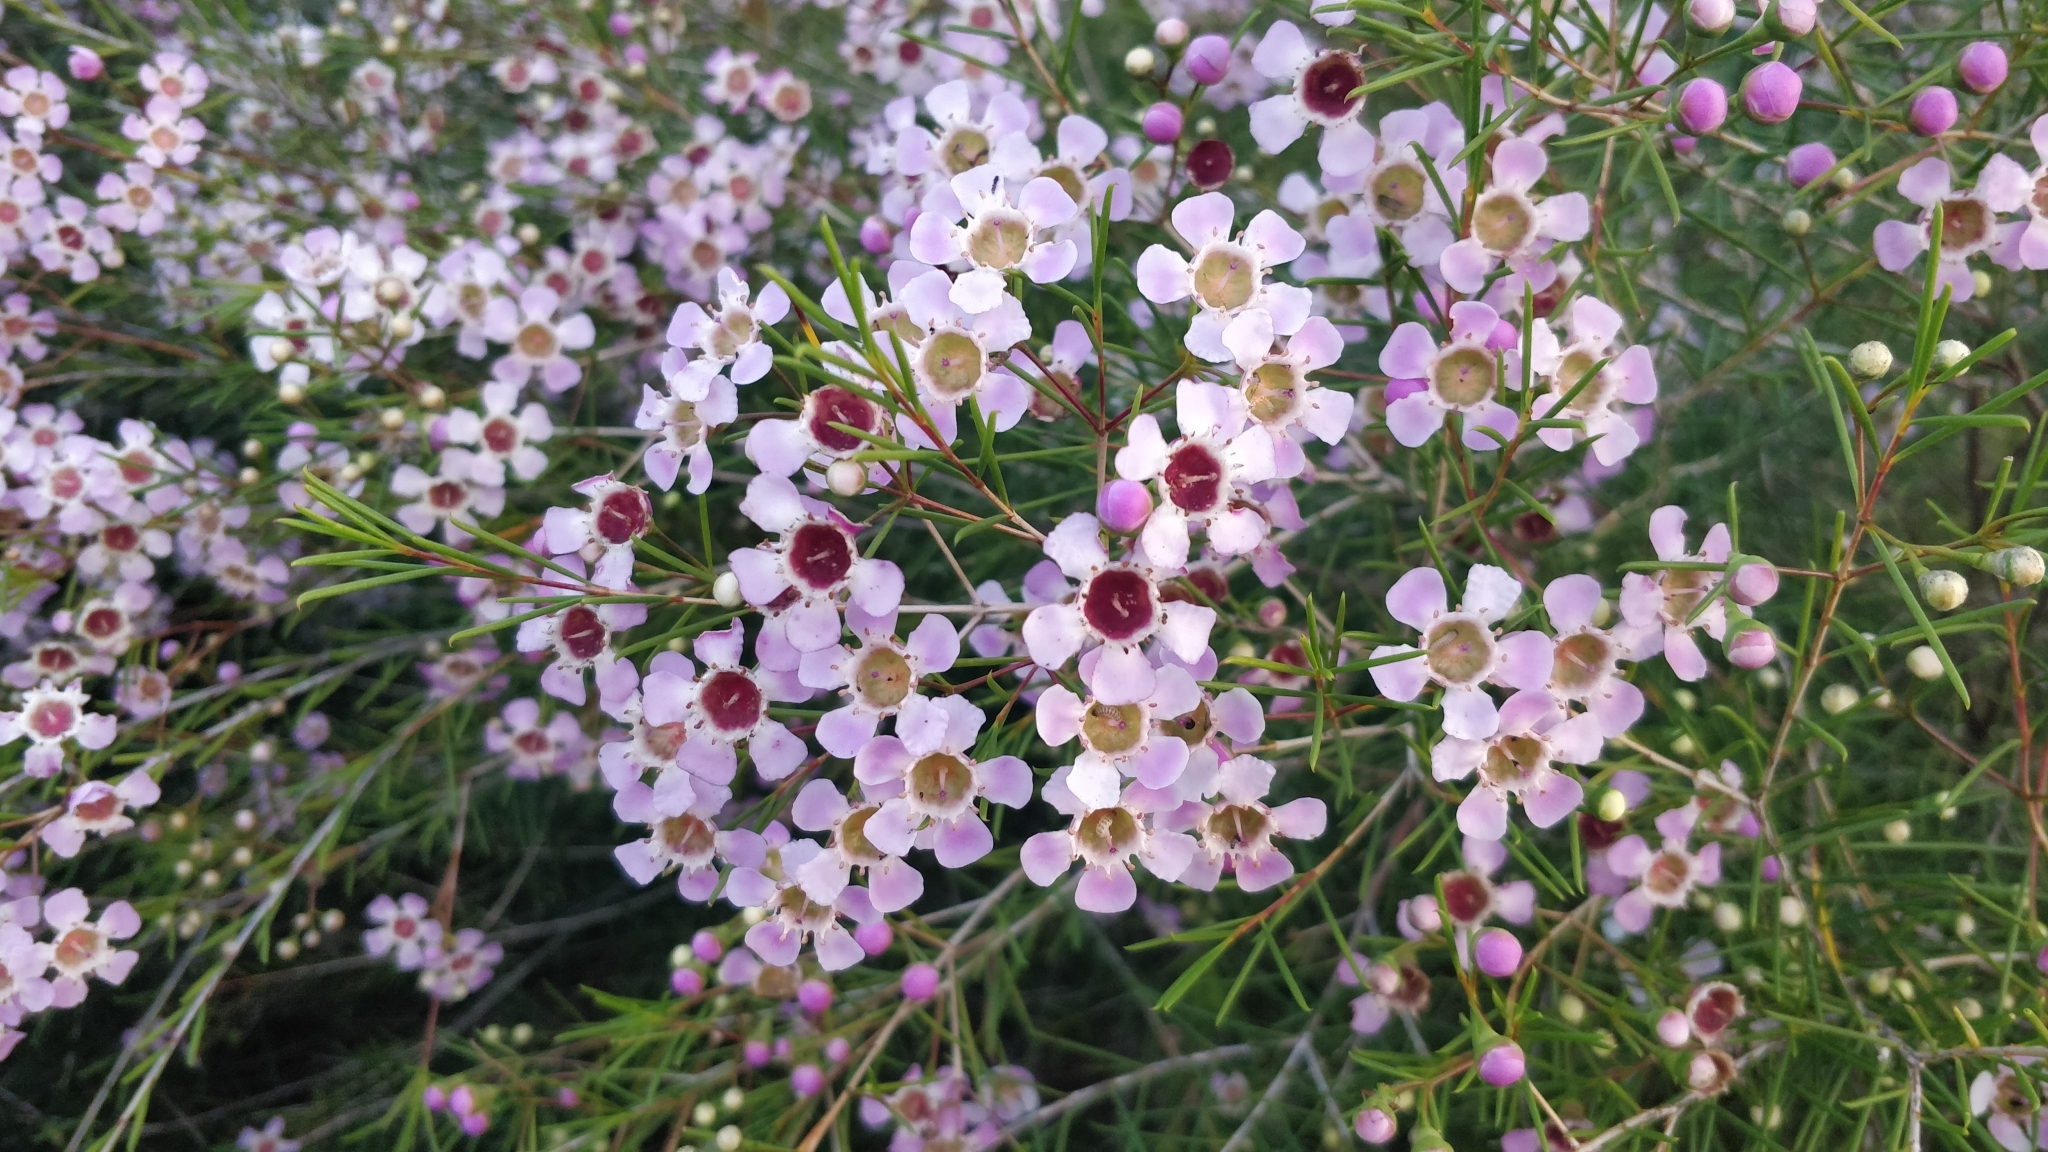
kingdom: Plantae
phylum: Tracheophyta
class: Magnoliopsida
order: Myrtales
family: Myrtaceae
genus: Chamelaucium
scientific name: Chamelaucium uncinatum
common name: Geraldton wax
